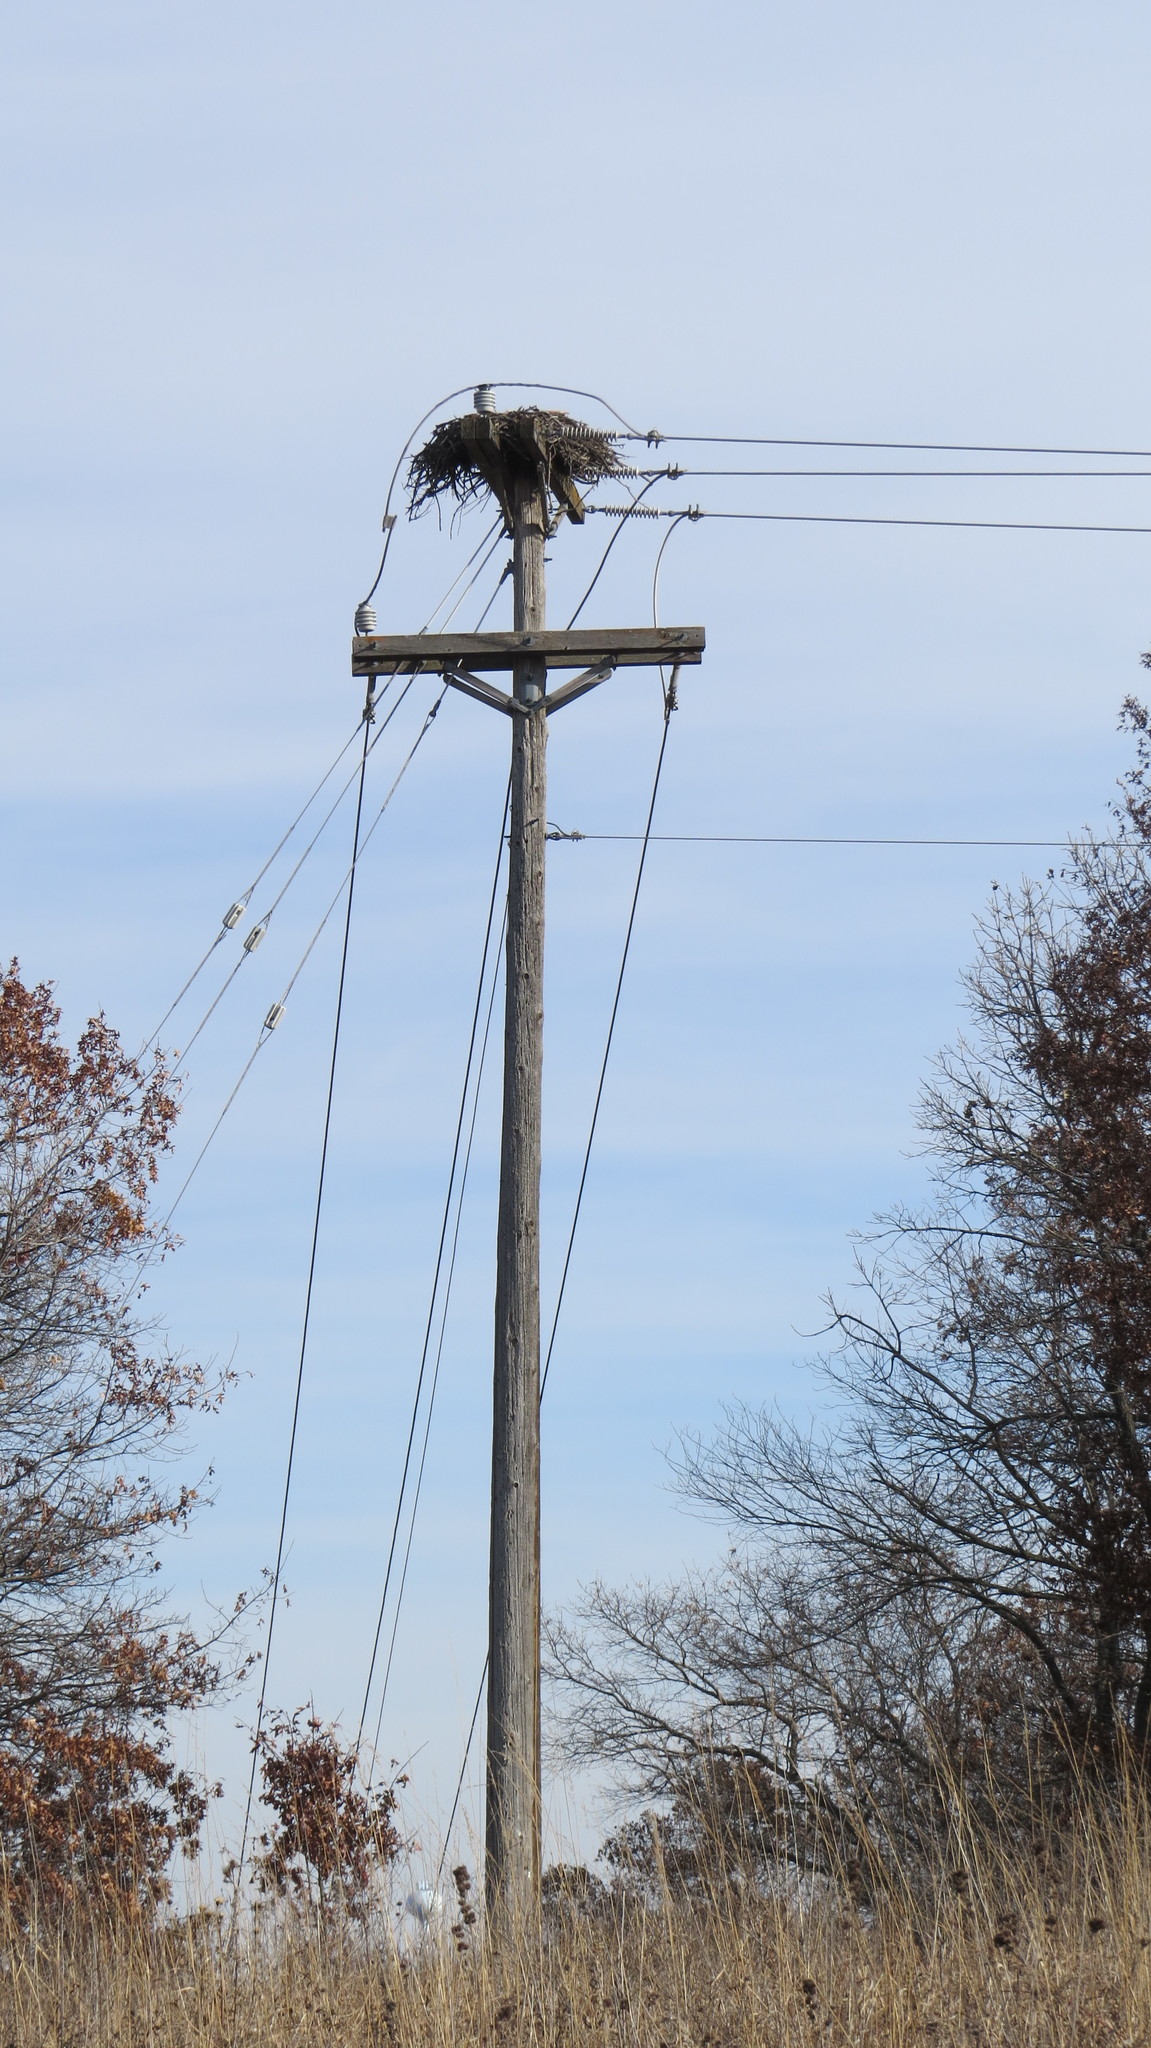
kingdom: Animalia
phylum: Chordata
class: Aves
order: Accipitriformes
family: Pandionidae
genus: Pandion
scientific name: Pandion haliaetus
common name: Osprey
